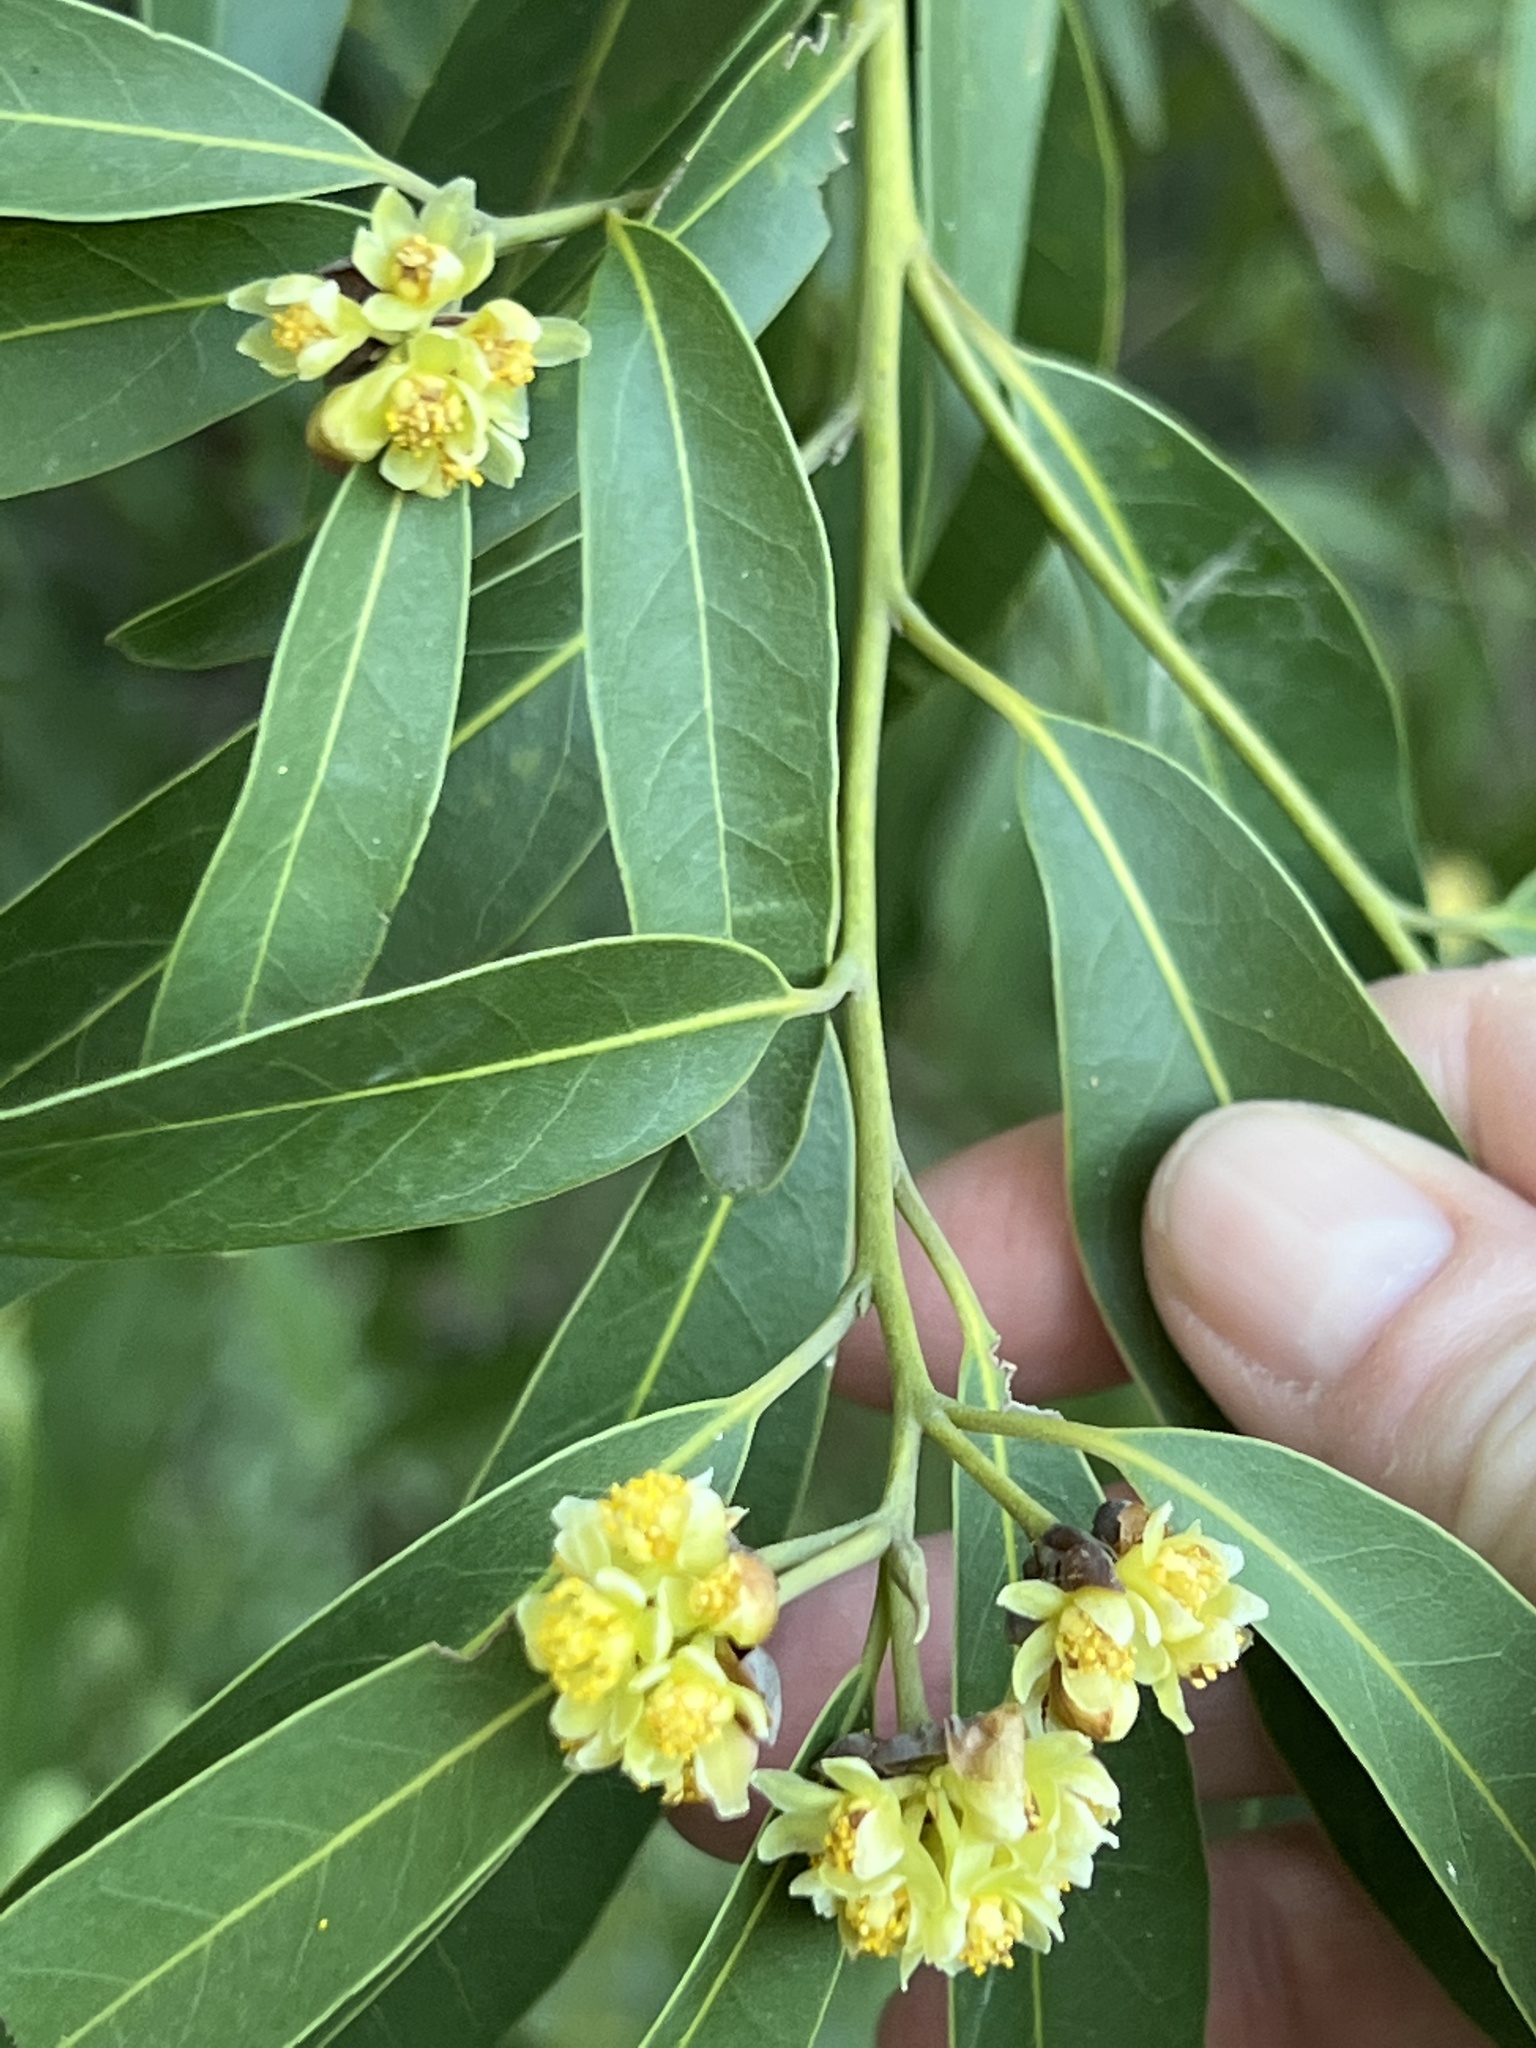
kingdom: Plantae
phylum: Tracheophyta
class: Magnoliopsida
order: Laurales
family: Lauraceae
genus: Umbellularia
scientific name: Umbellularia californica
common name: California bay
